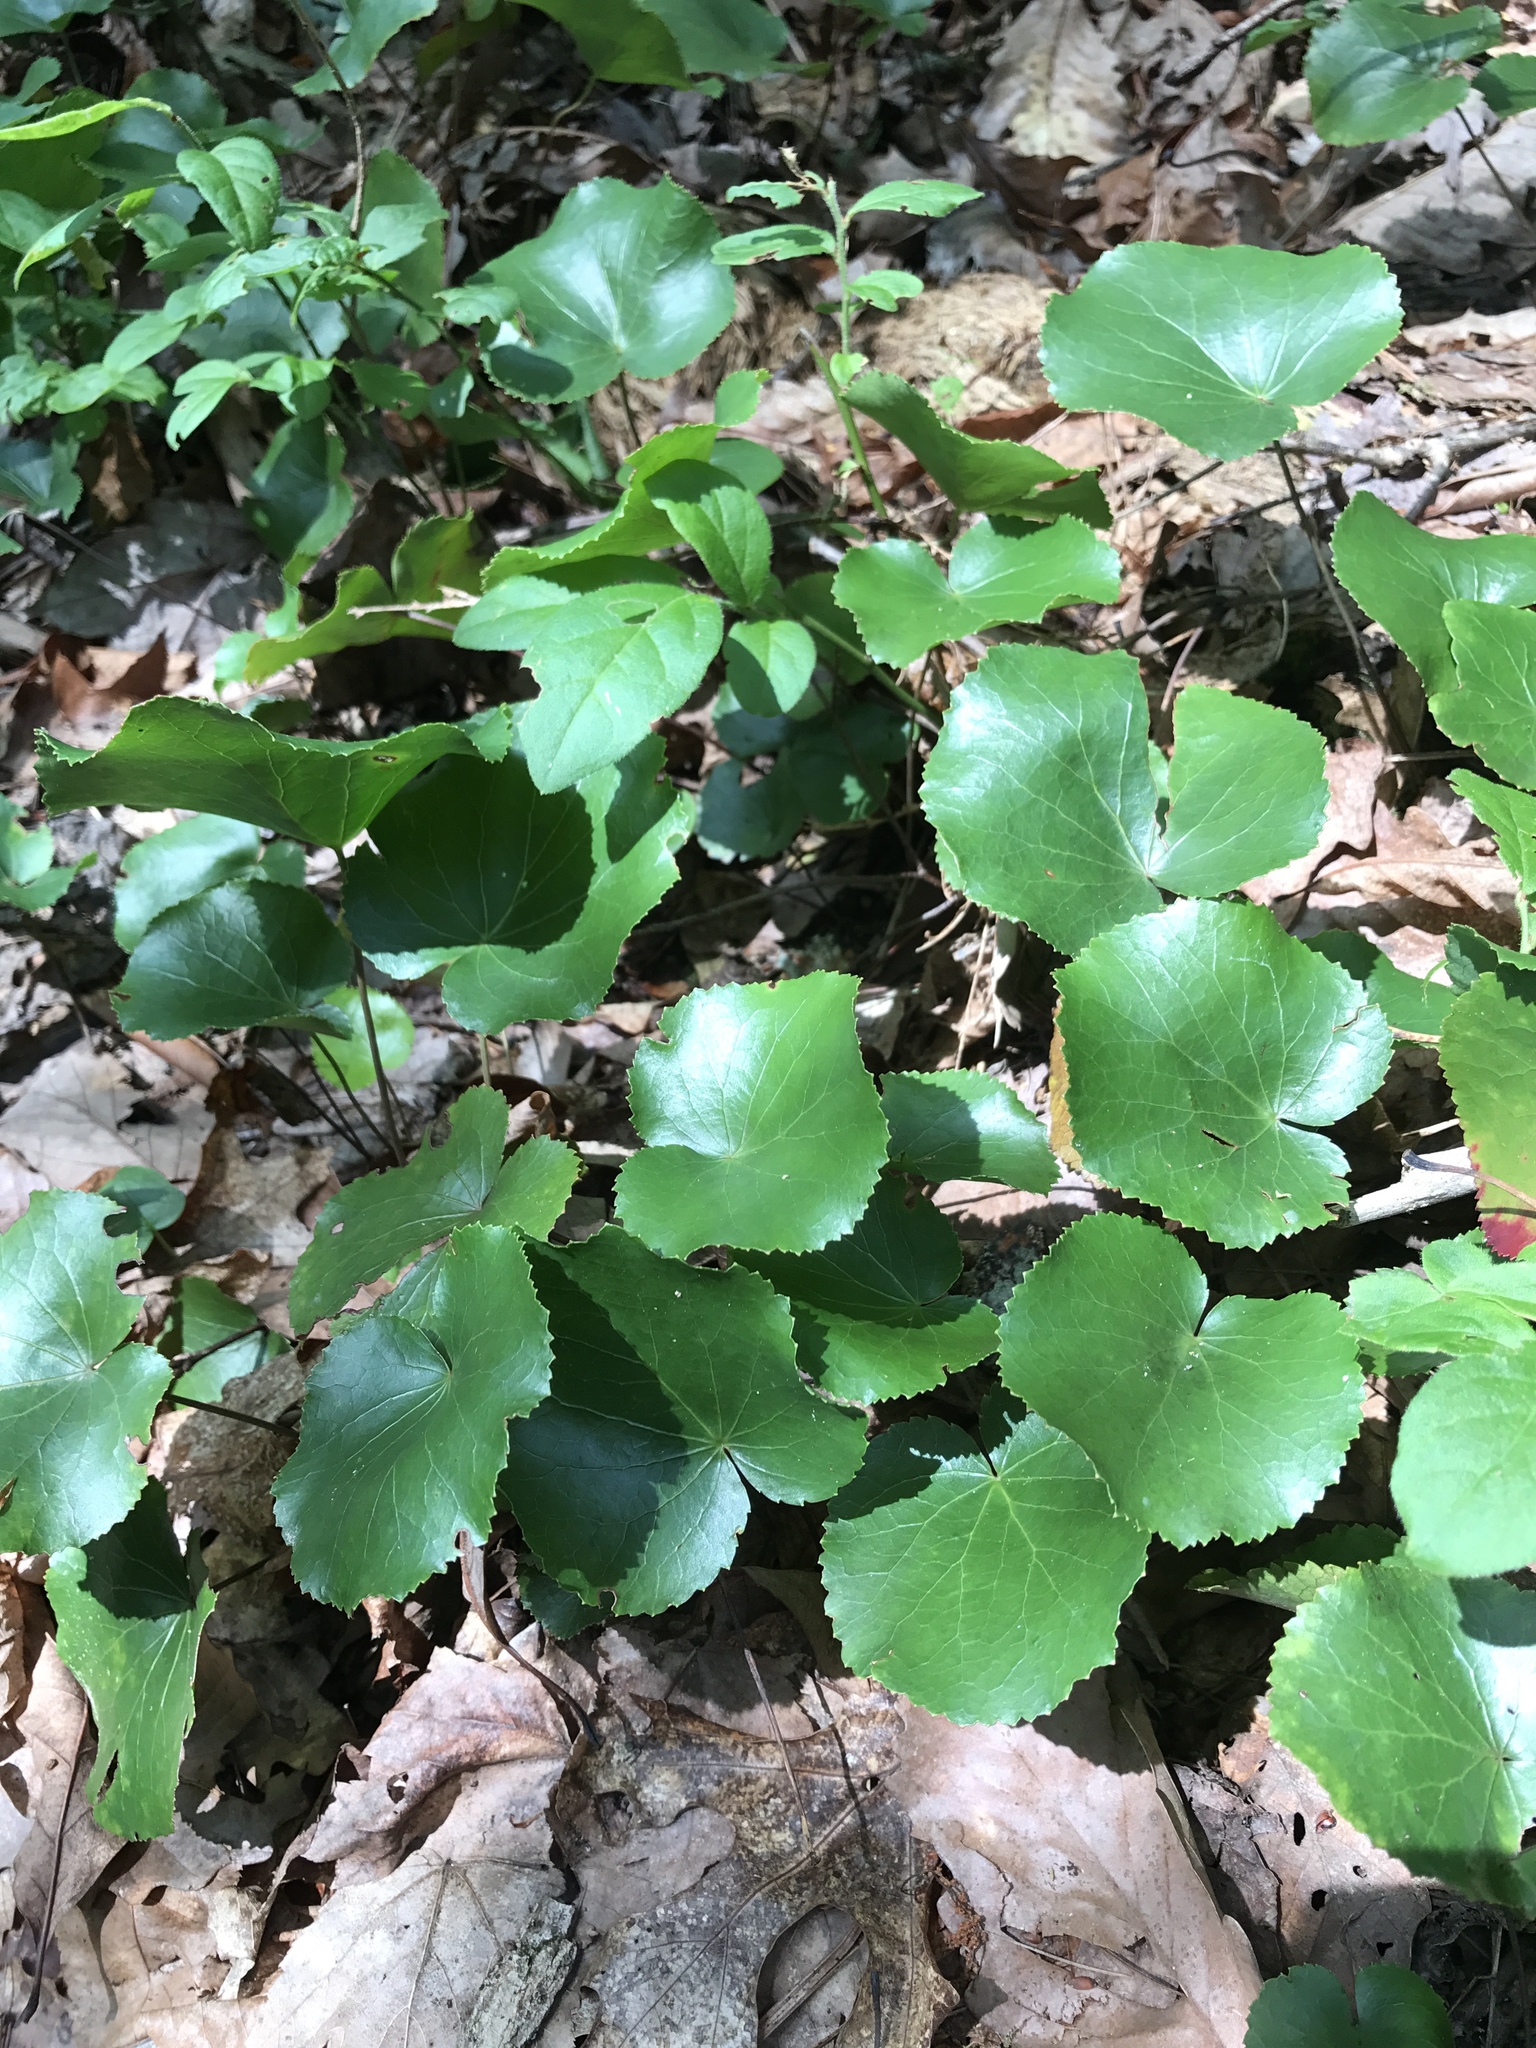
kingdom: Plantae
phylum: Tracheophyta
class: Magnoliopsida
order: Ericales
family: Diapensiaceae
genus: Galax
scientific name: Galax urceolata
